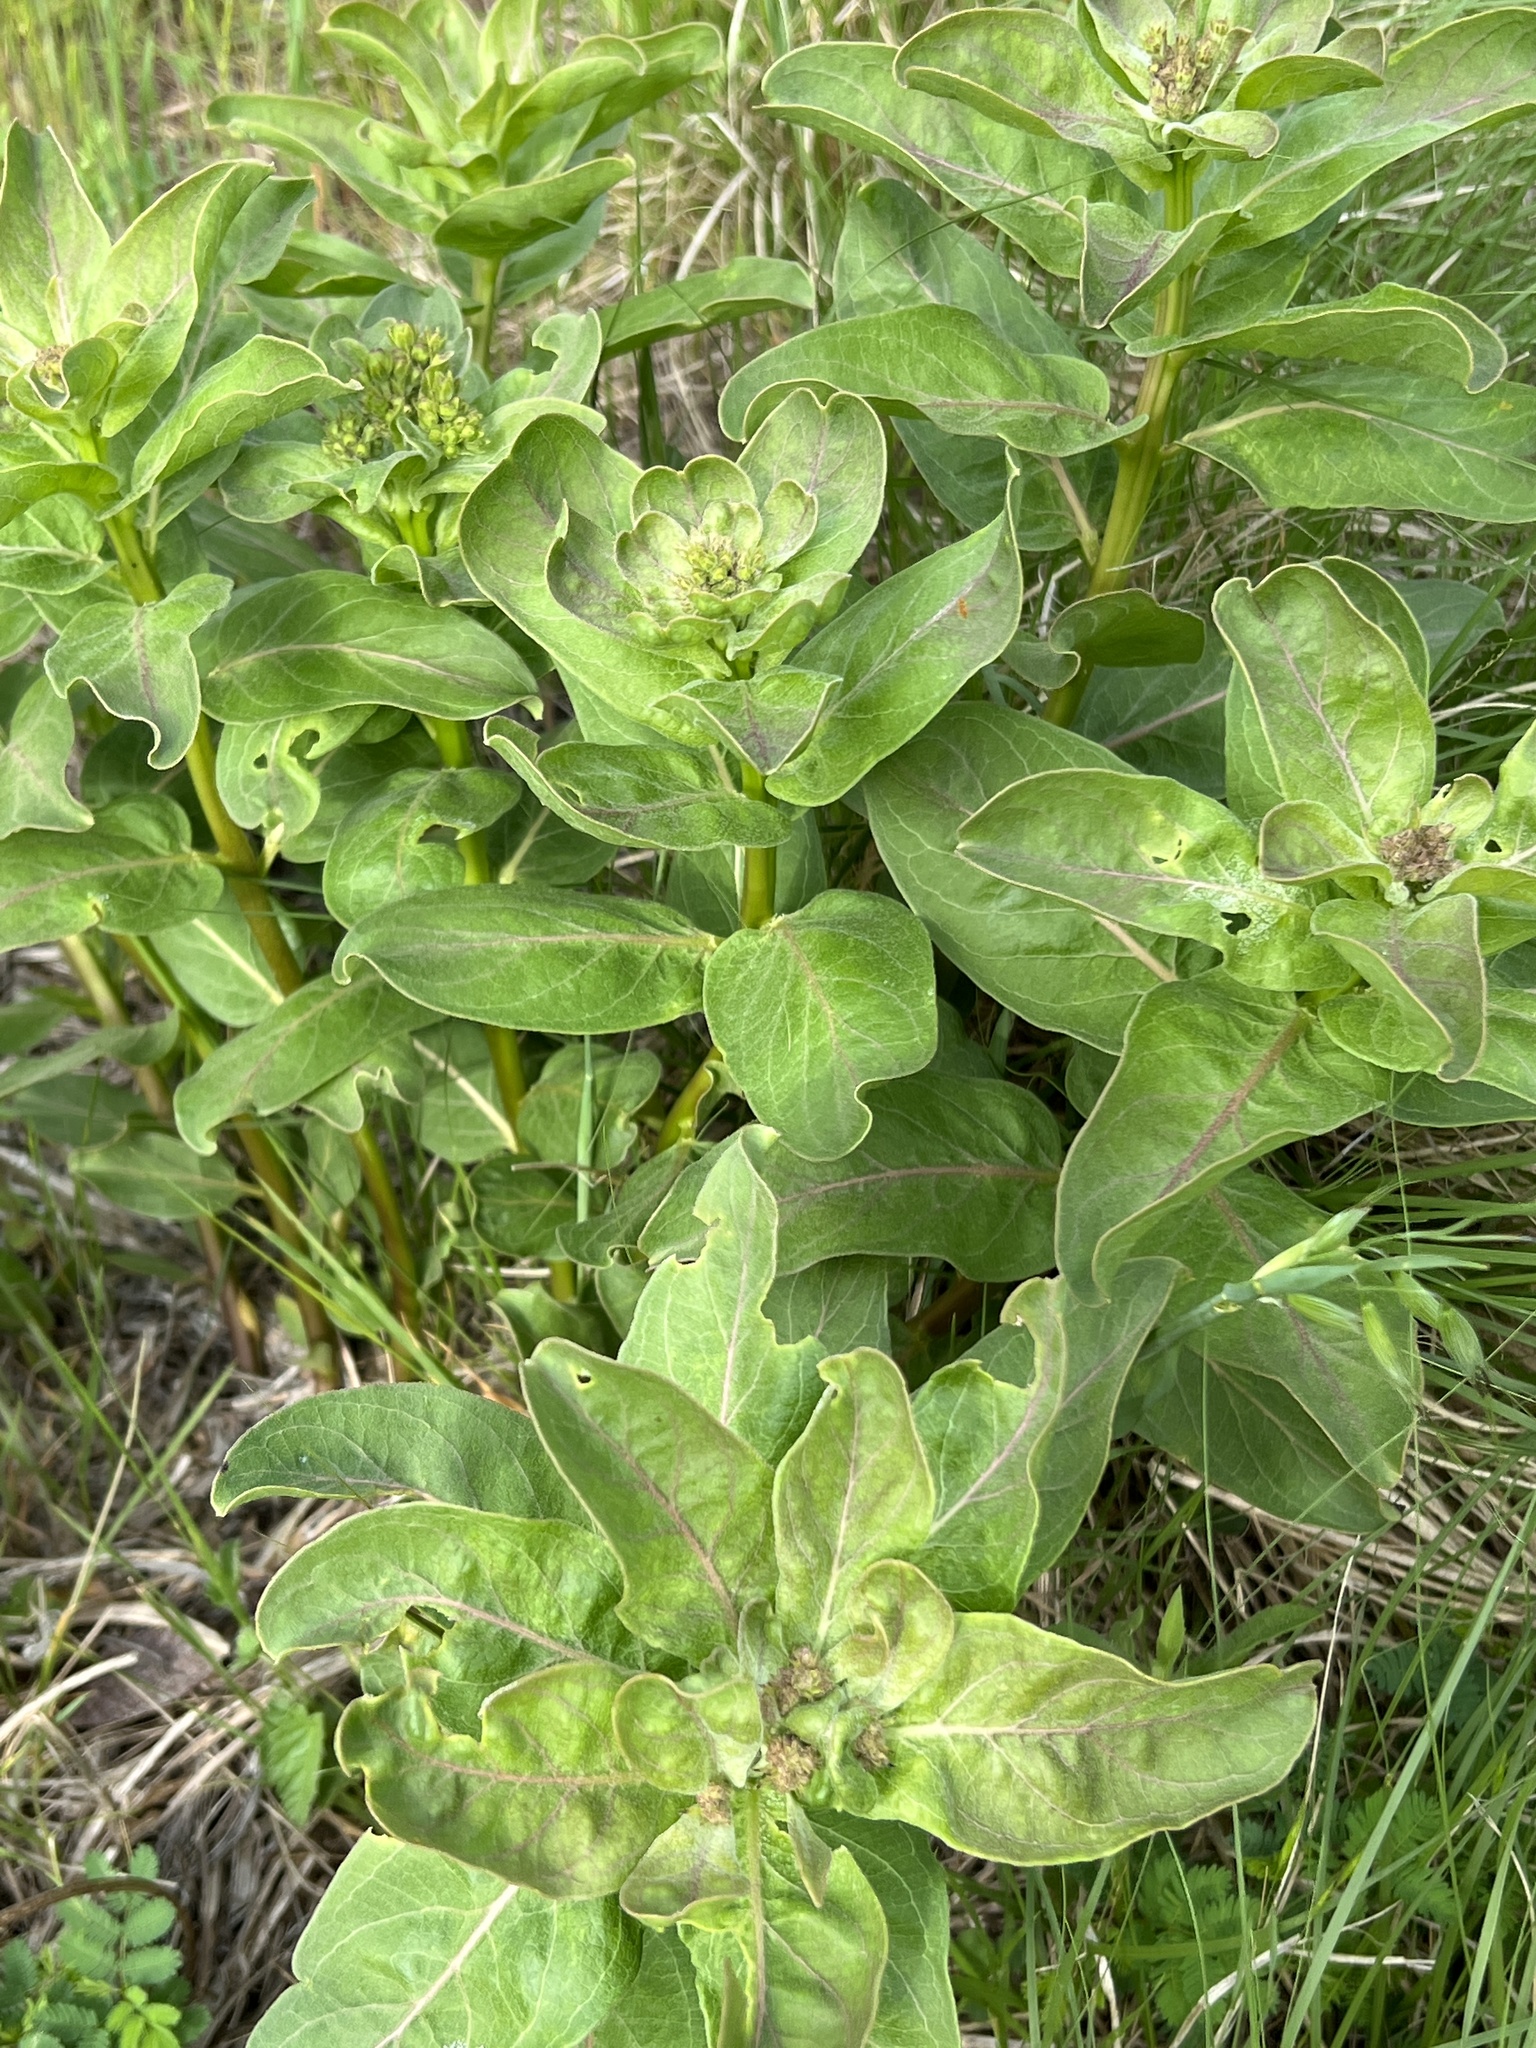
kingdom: Plantae
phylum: Tracheophyta
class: Magnoliopsida
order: Gentianales
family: Apocynaceae
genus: Asclepias
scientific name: Asclepias viridis
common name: Antelope-horns
